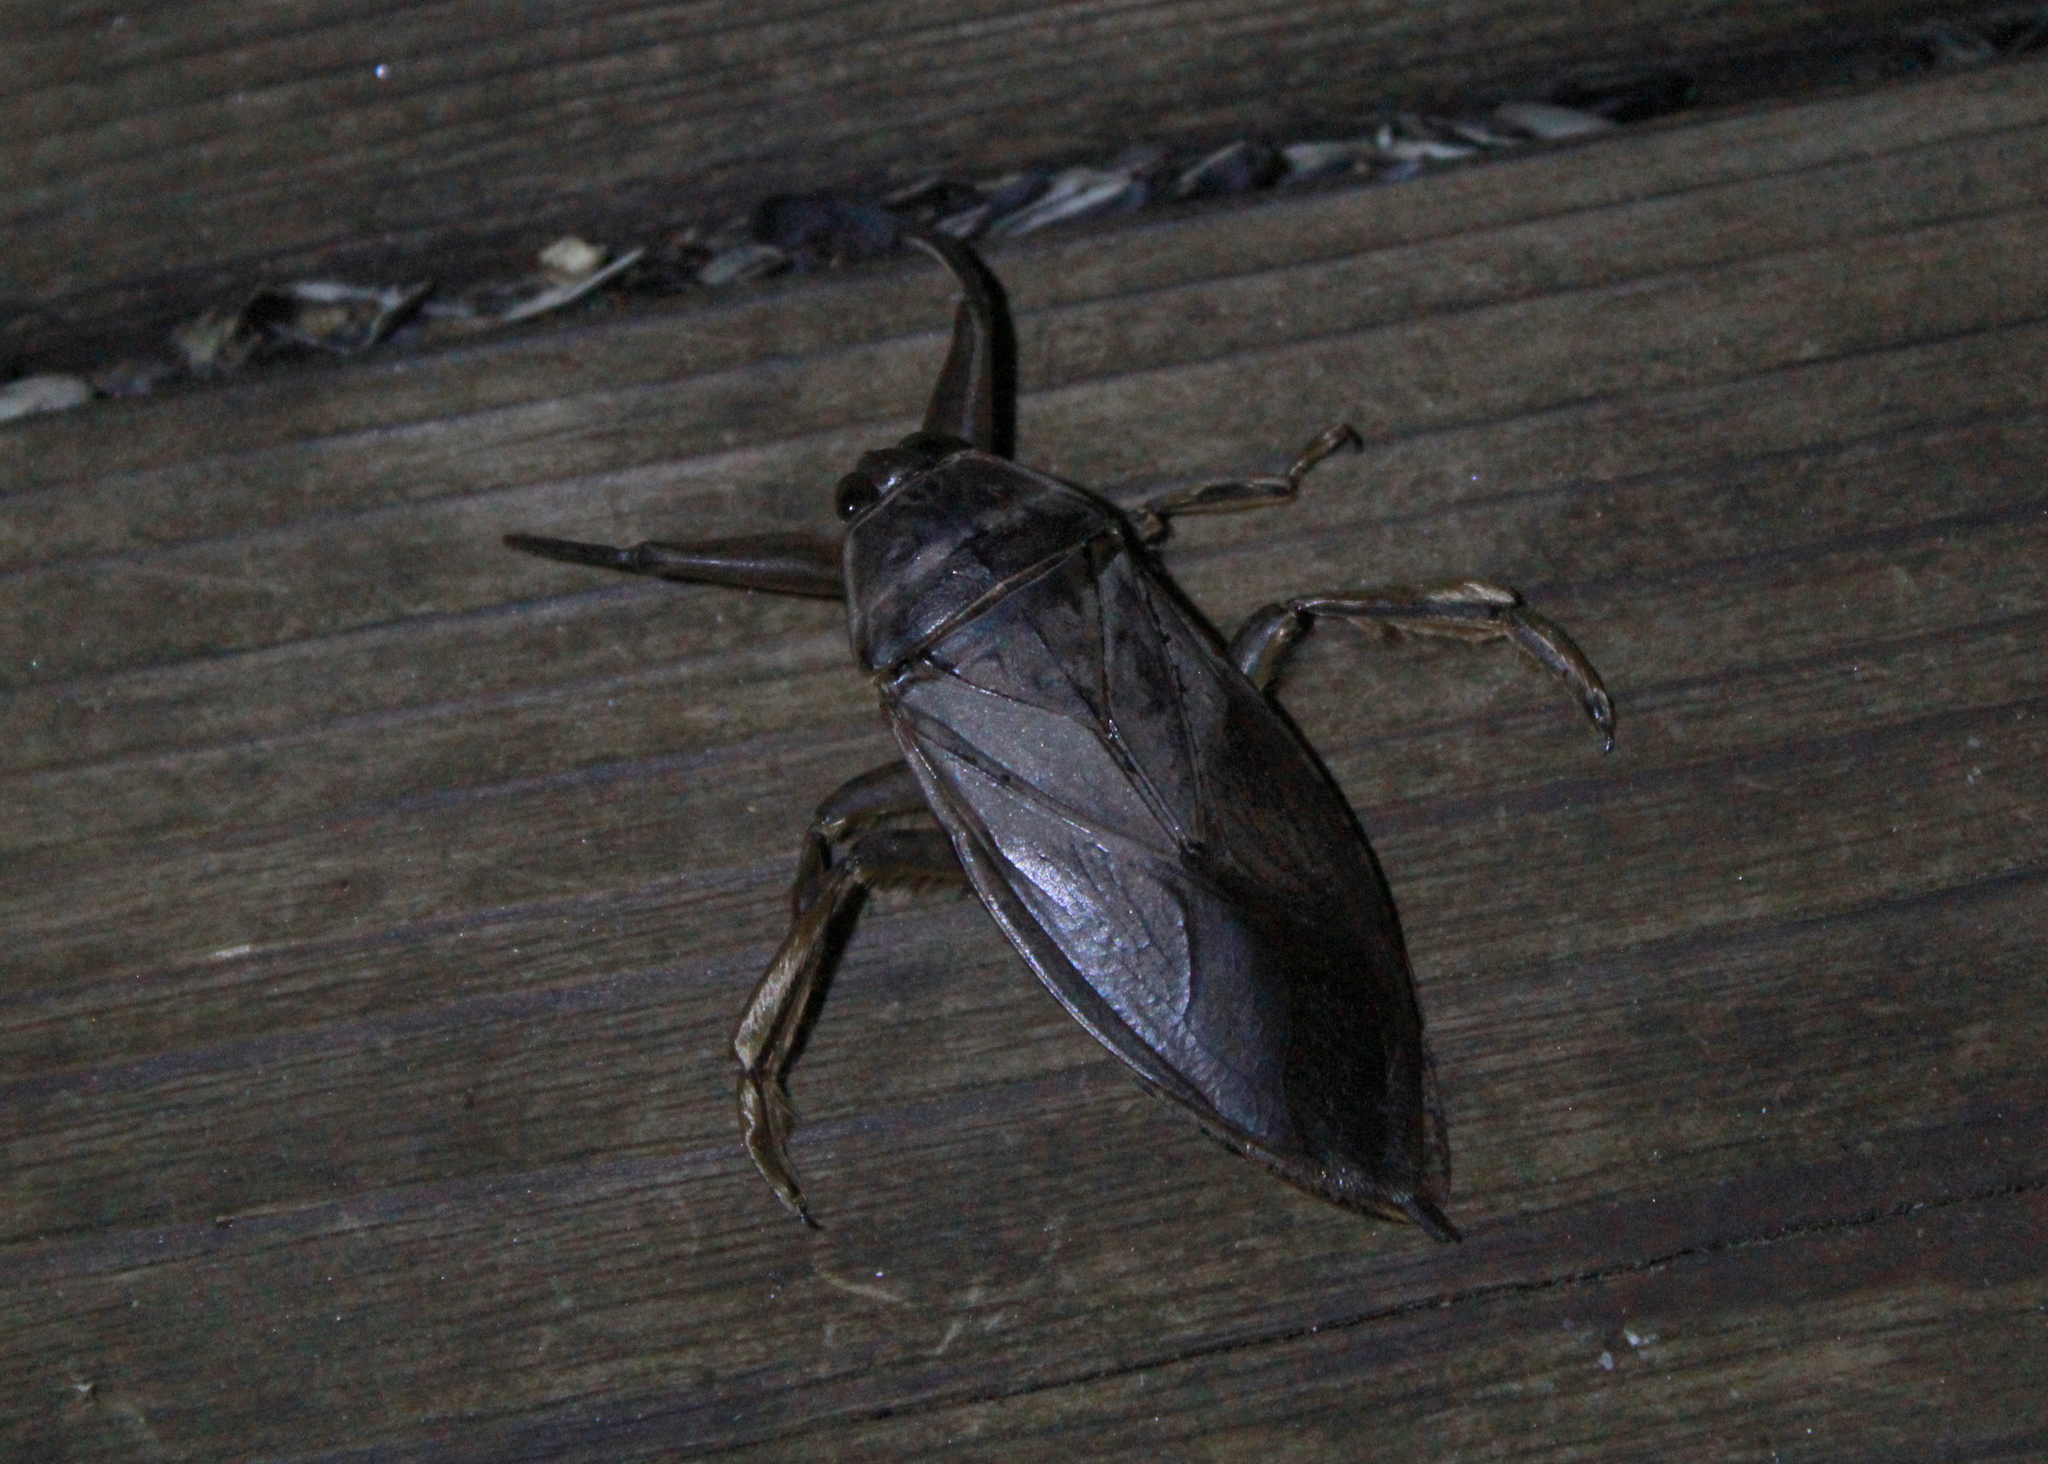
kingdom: Animalia
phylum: Arthropoda
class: Insecta
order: Hemiptera
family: Belostomatidae
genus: Lethocerus
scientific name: Lethocerus americanus
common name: Giant water bug
